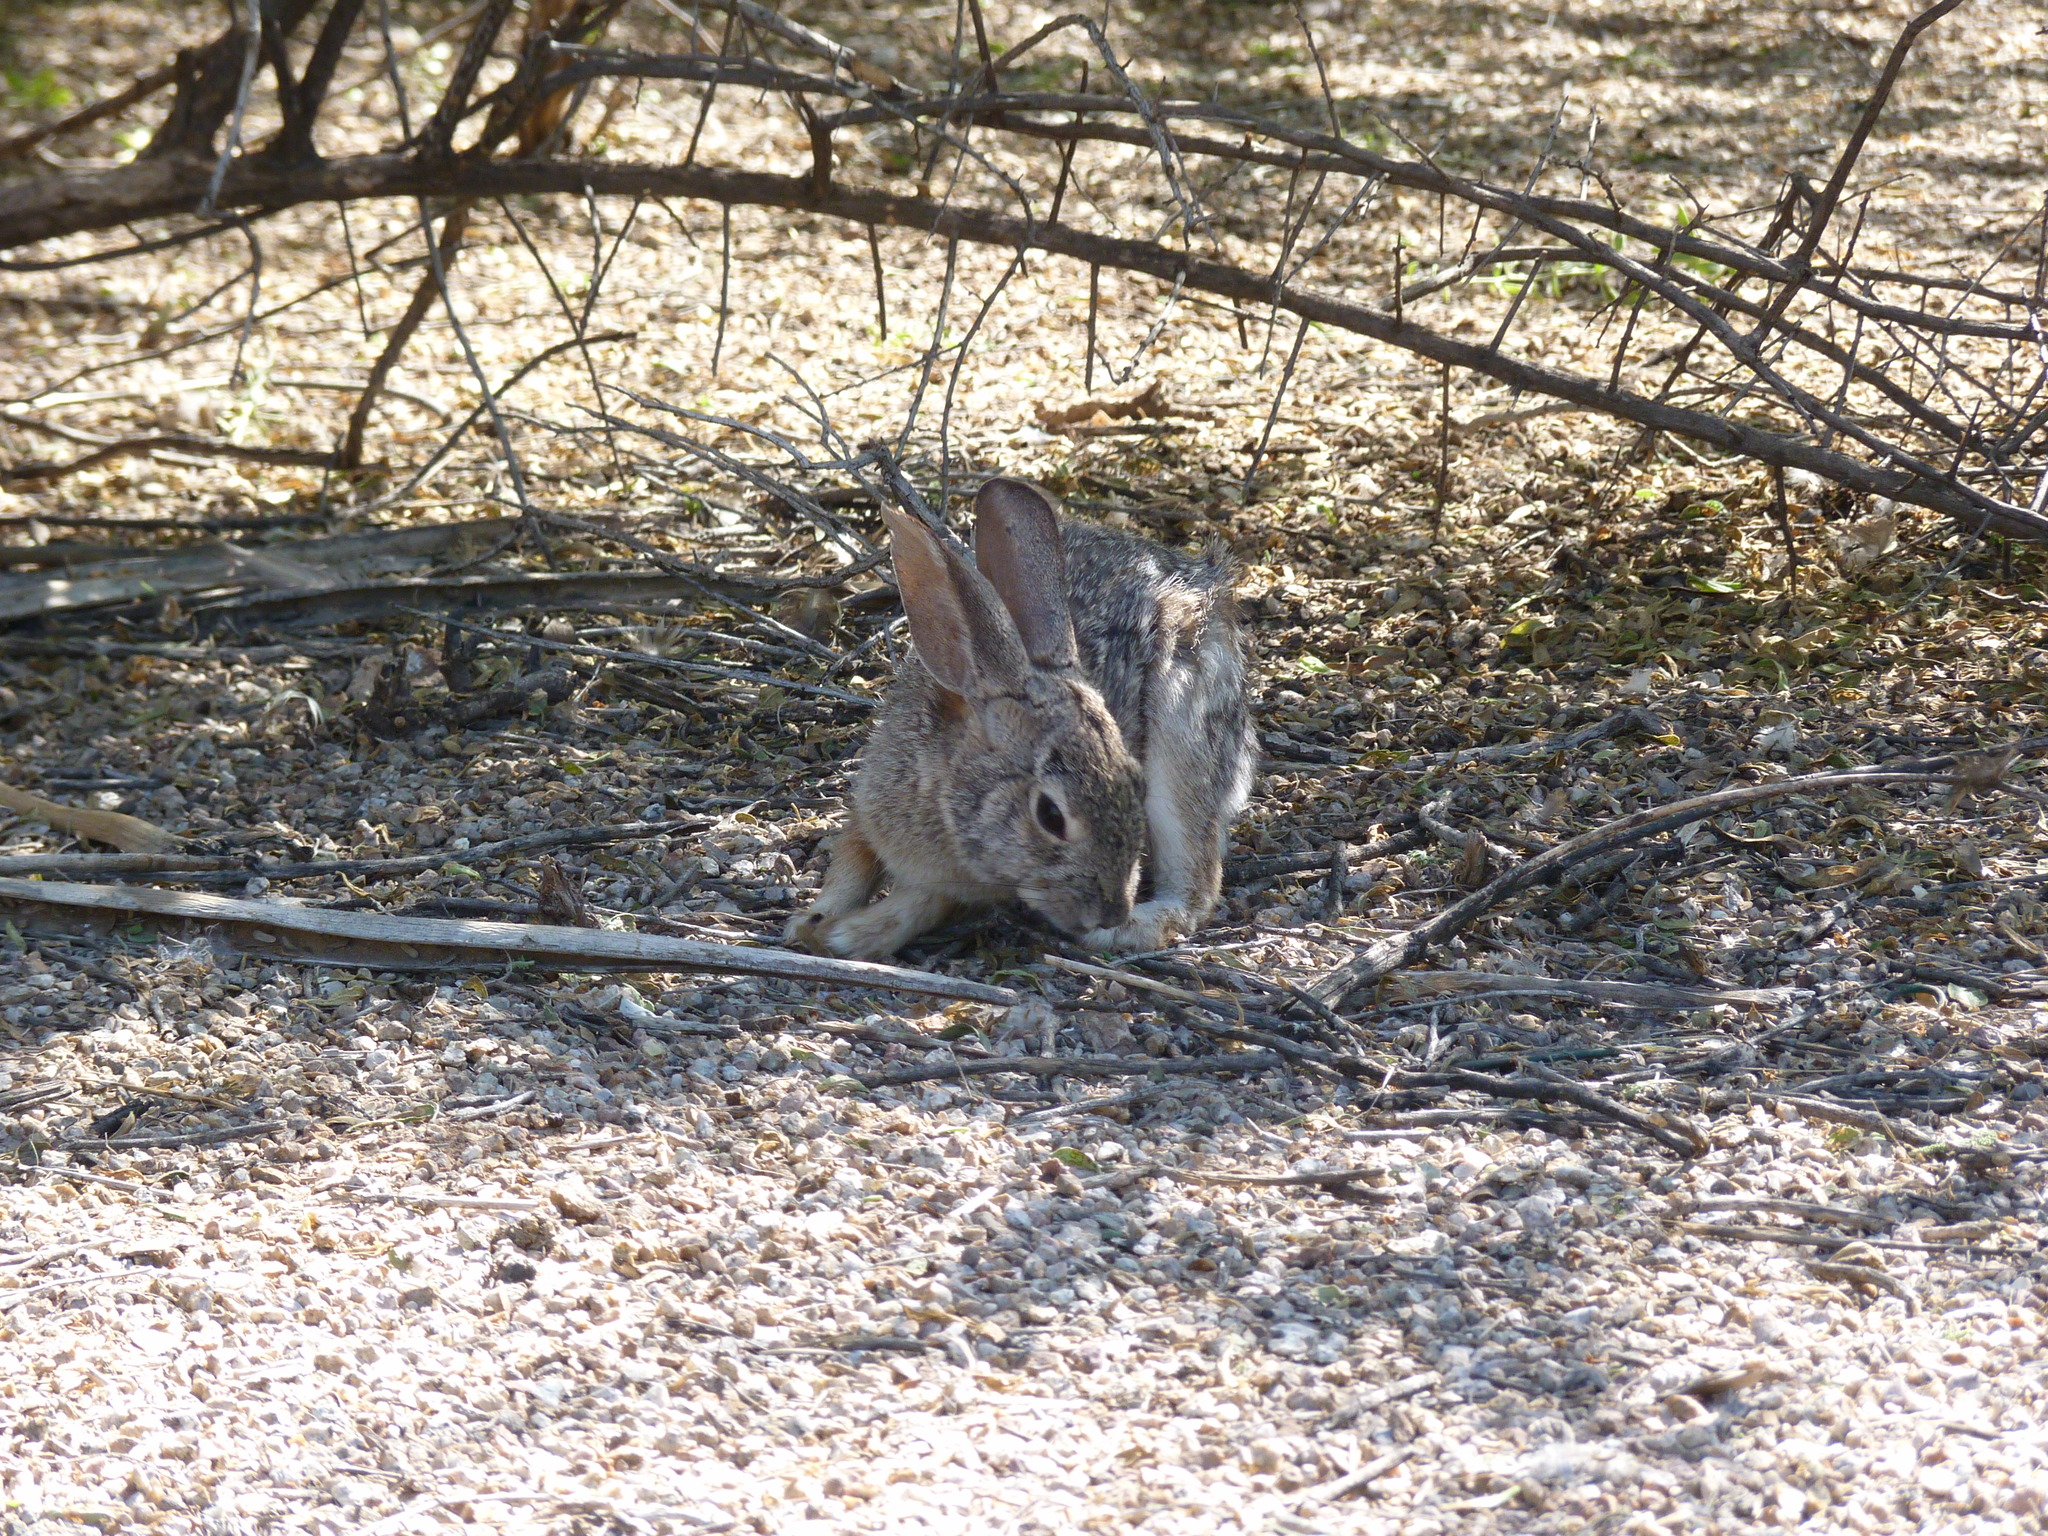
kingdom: Animalia
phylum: Chordata
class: Mammalia
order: Lagomorpha
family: Leporidae
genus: Sylvilagus
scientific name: Sylvilagus audubonii
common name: Desert cottontail
